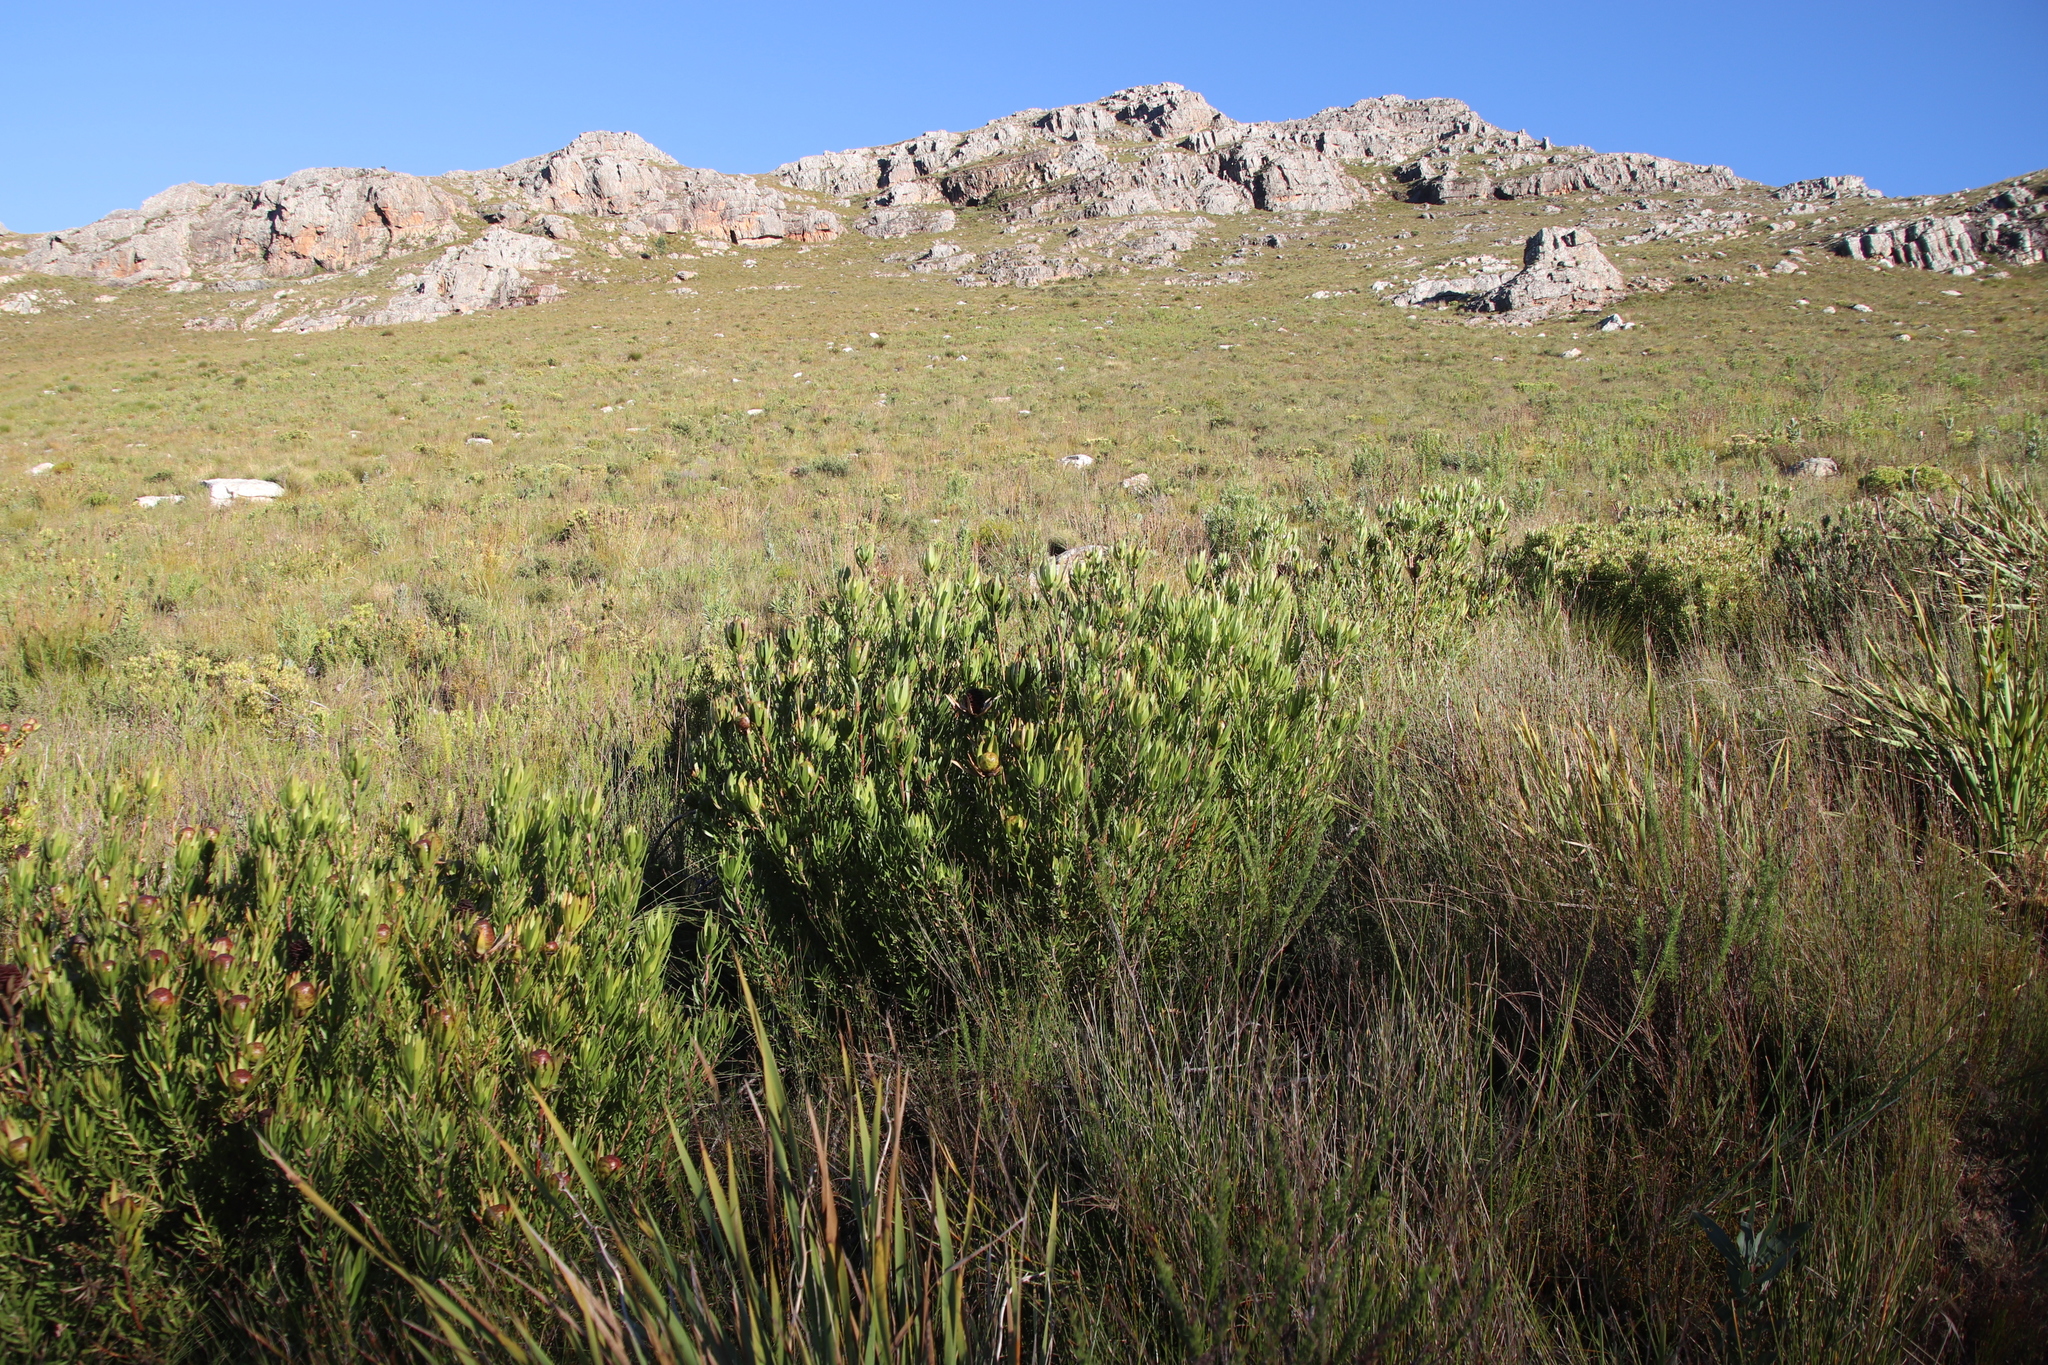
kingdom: Plantae
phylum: Tracheophyta
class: Magnoliopsida
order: Proteales
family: Proteaceae
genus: Leucadendron
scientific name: Leucadendron spissifolium
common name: Spear-leaf conebush
